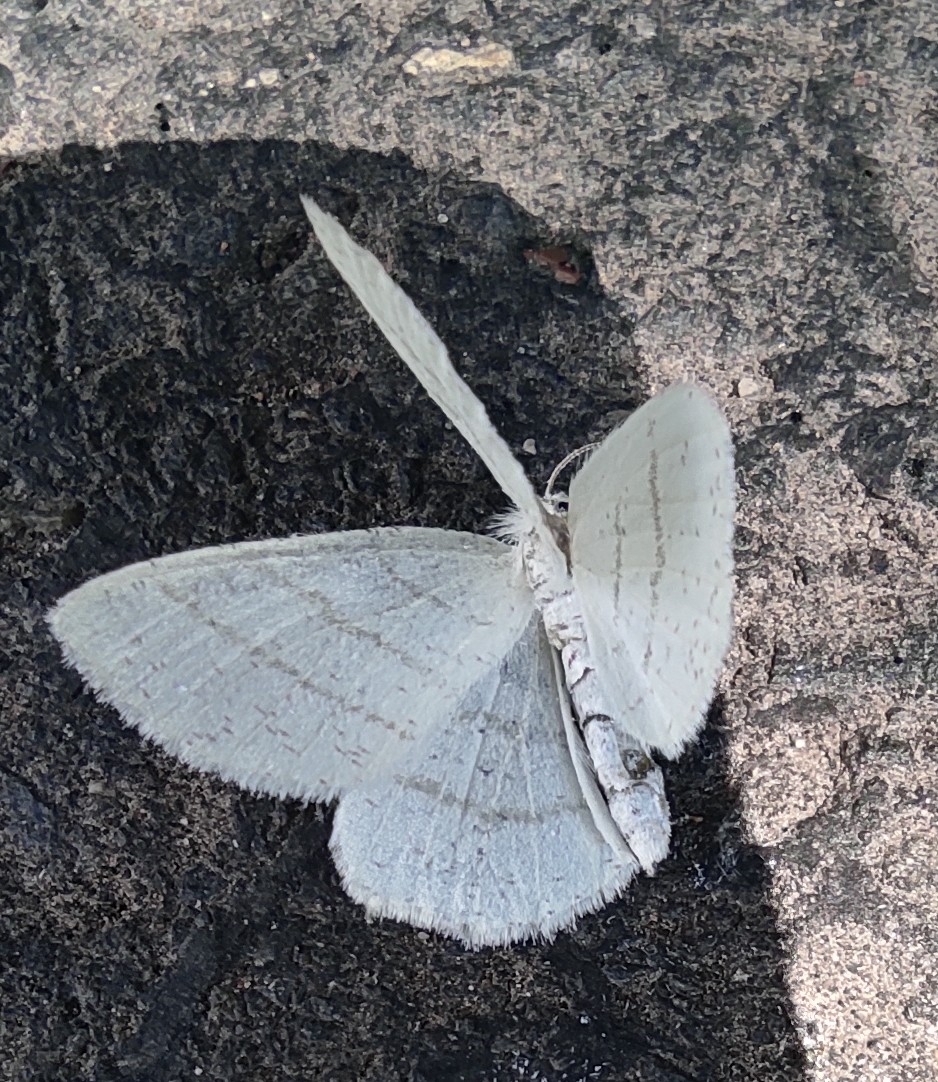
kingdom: Animalia
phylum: Arthropoda
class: Insecta
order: Lepidoptera
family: Geometridae
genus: Cabera
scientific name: Cabera pusaria
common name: Common white wave
